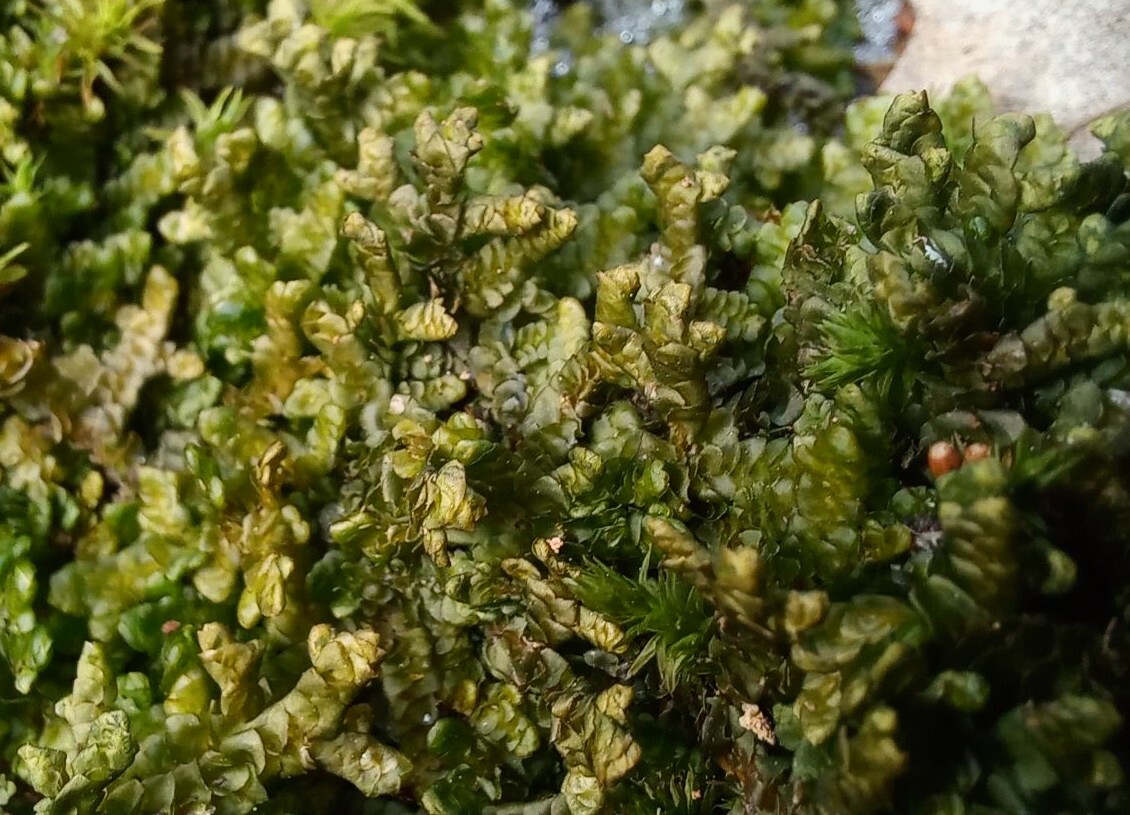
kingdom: Plantae
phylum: Marchantiophyta
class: Jungermanniopsida
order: Porellales
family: Porellaceae
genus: Porella
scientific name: Porella platyphylla
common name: Wall scalewort
